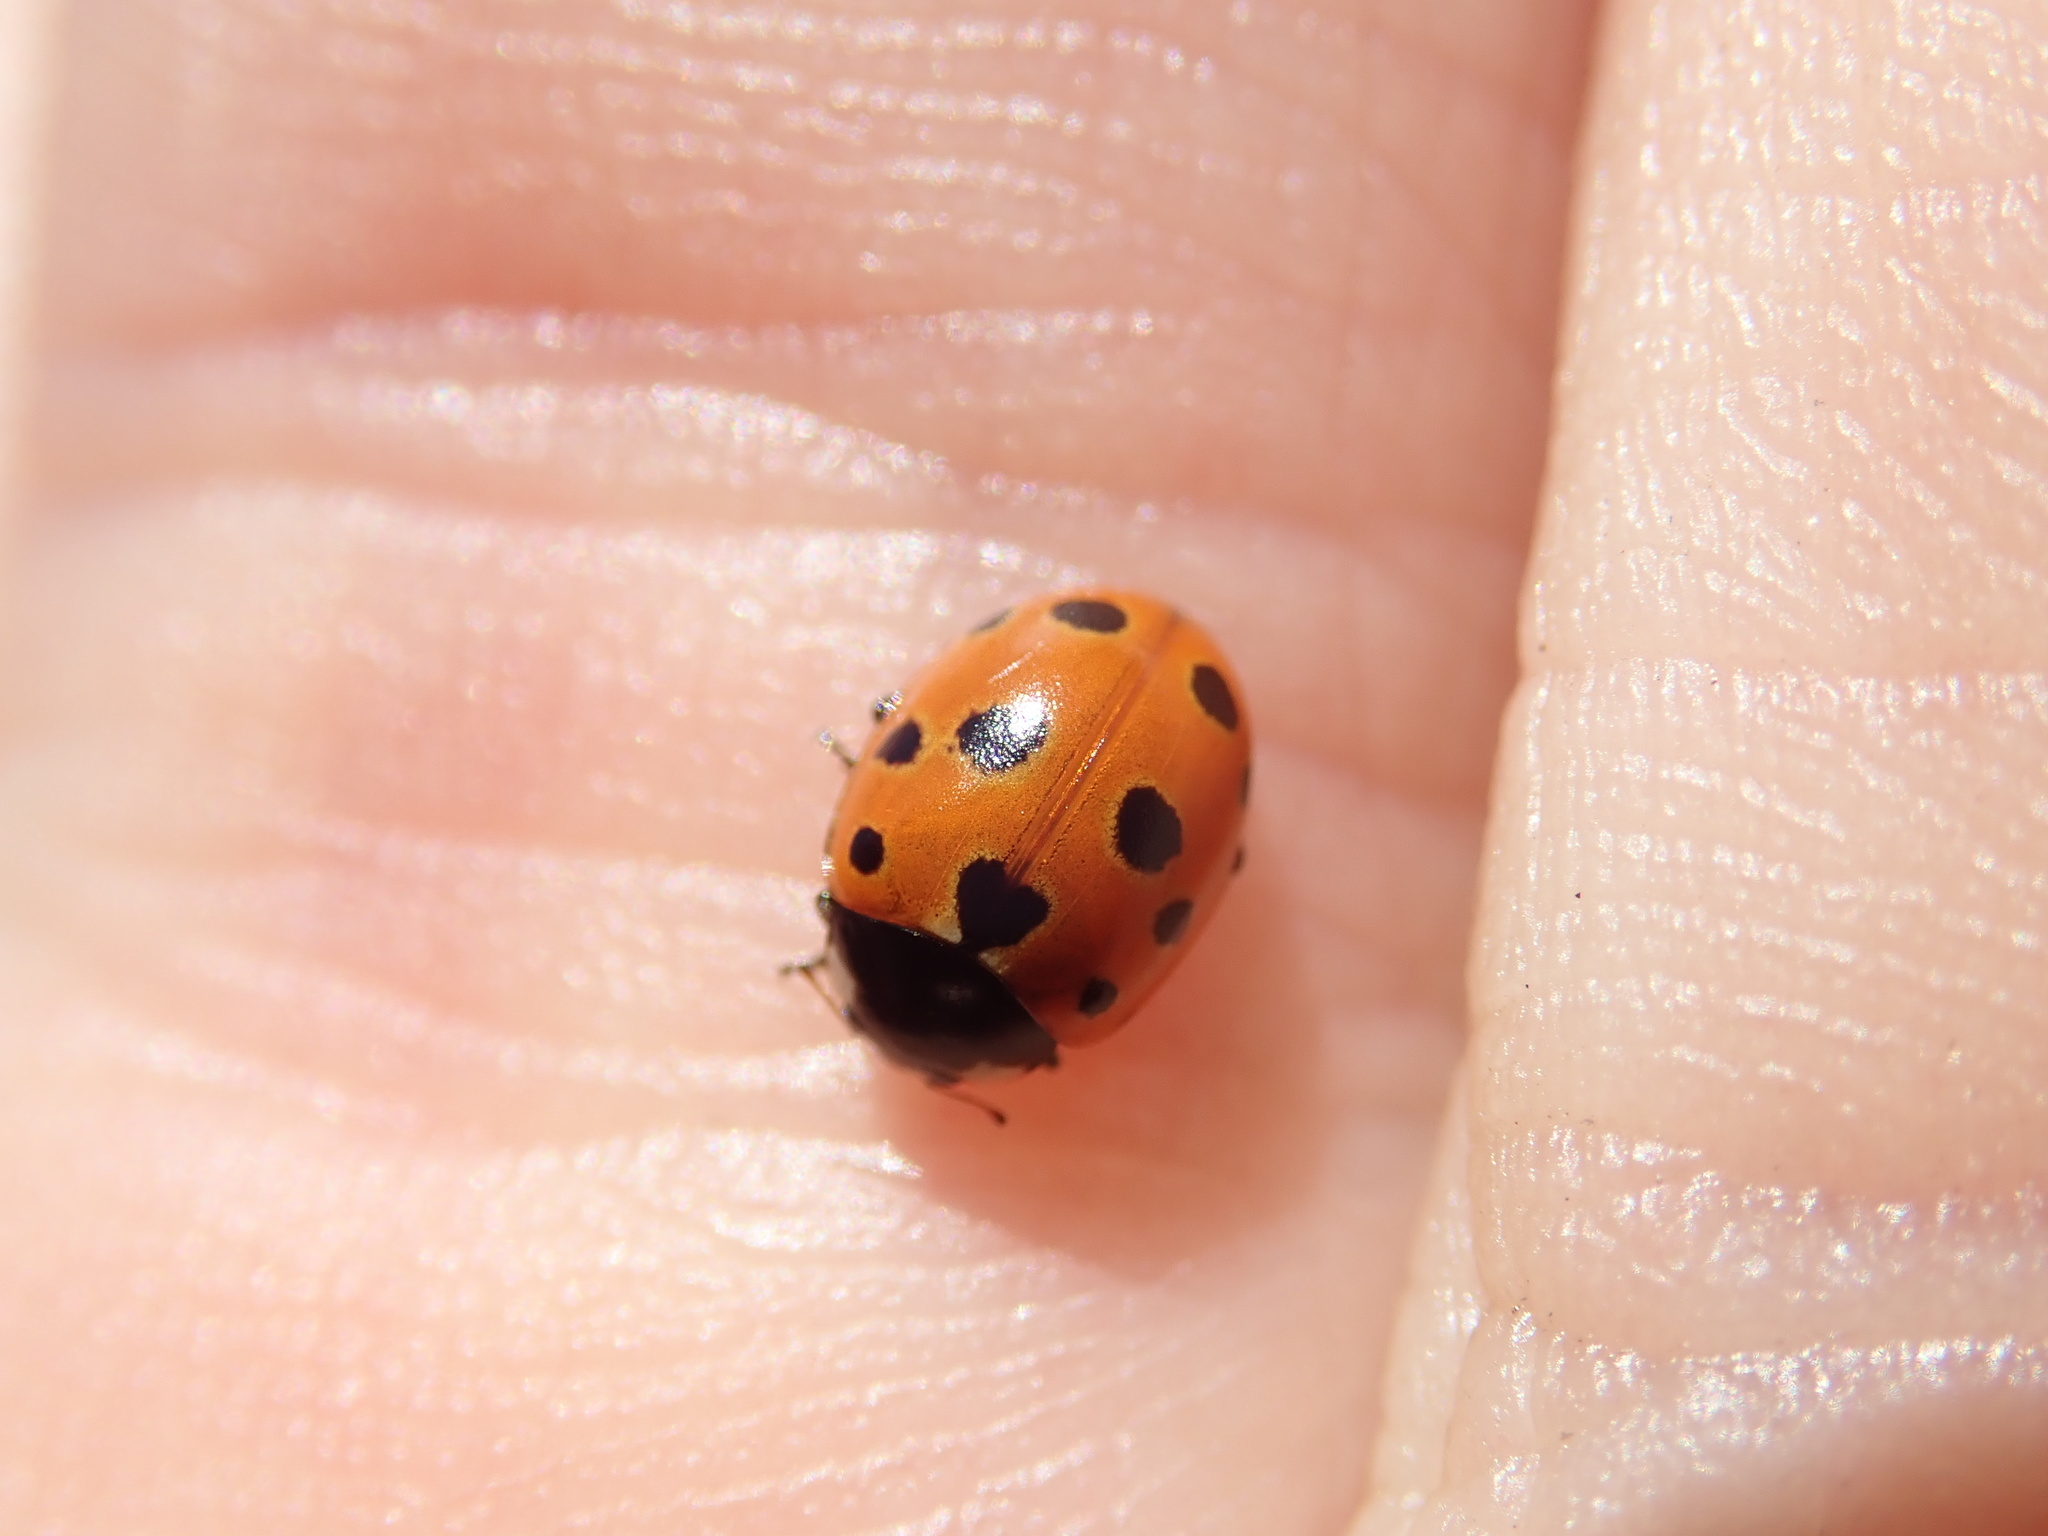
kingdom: Animalia
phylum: Arthropoda
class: Insecta
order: Coleoptera
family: Coccinellidae
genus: Coccinella
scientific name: Coccinella undecimpunctata
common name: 11-spot ladybird
